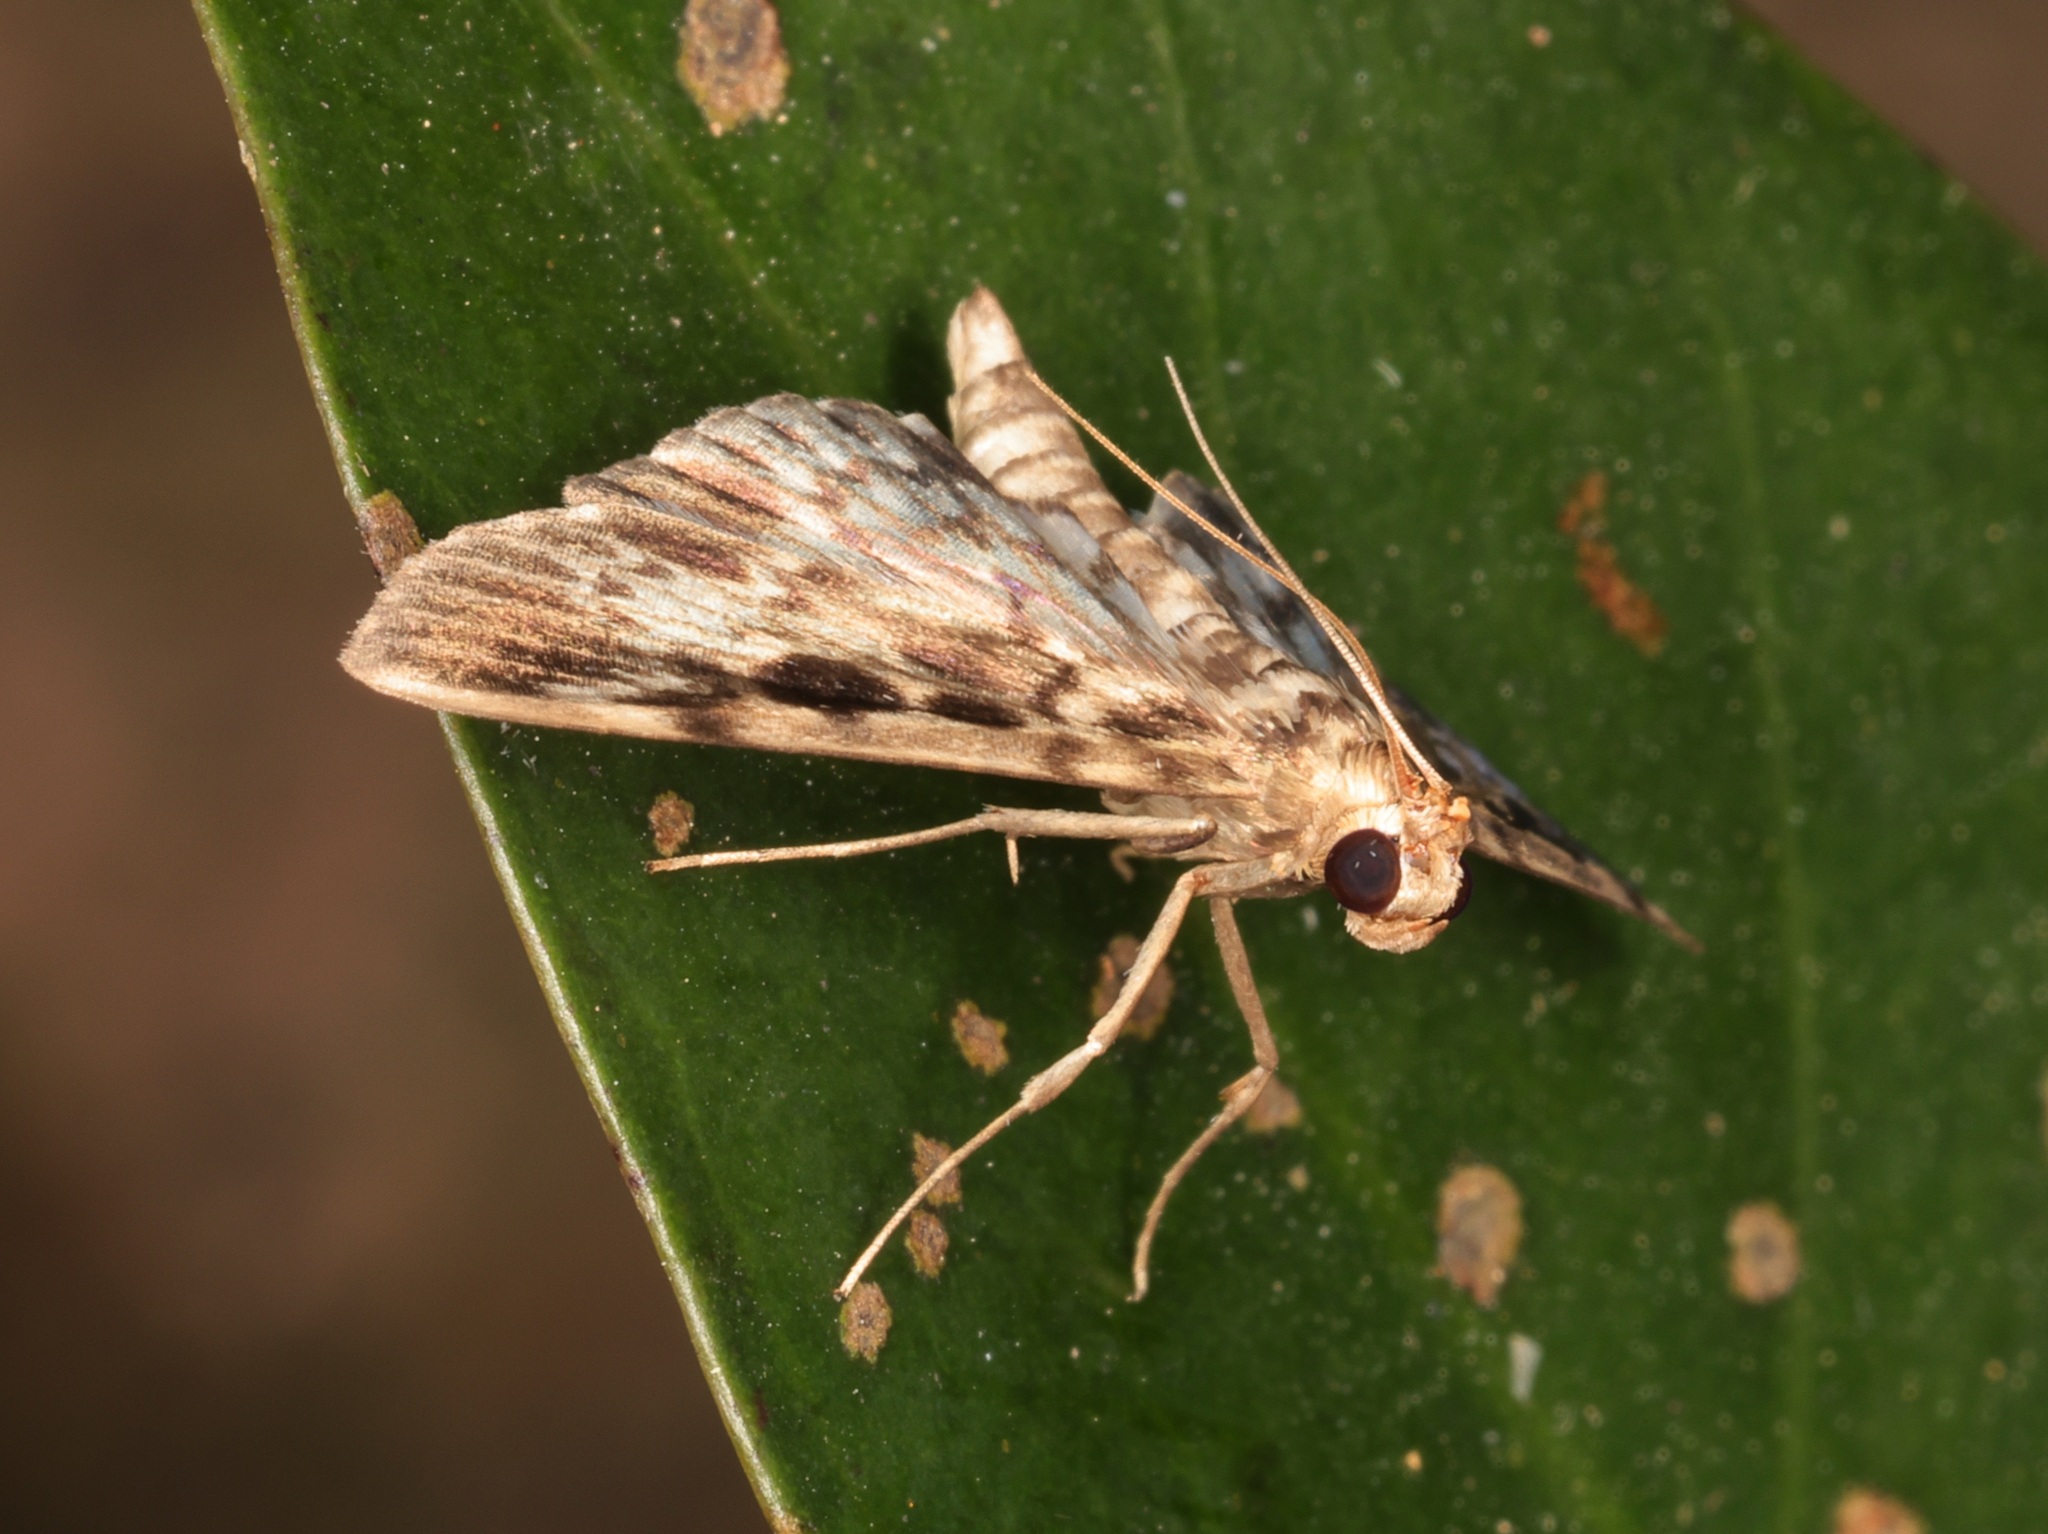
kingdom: Animalia
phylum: Arthropoda
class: Insecta
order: Lepidoptera
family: Crambidae
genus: Rhimphaliodes
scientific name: Rhimphaliodes macrostigma
